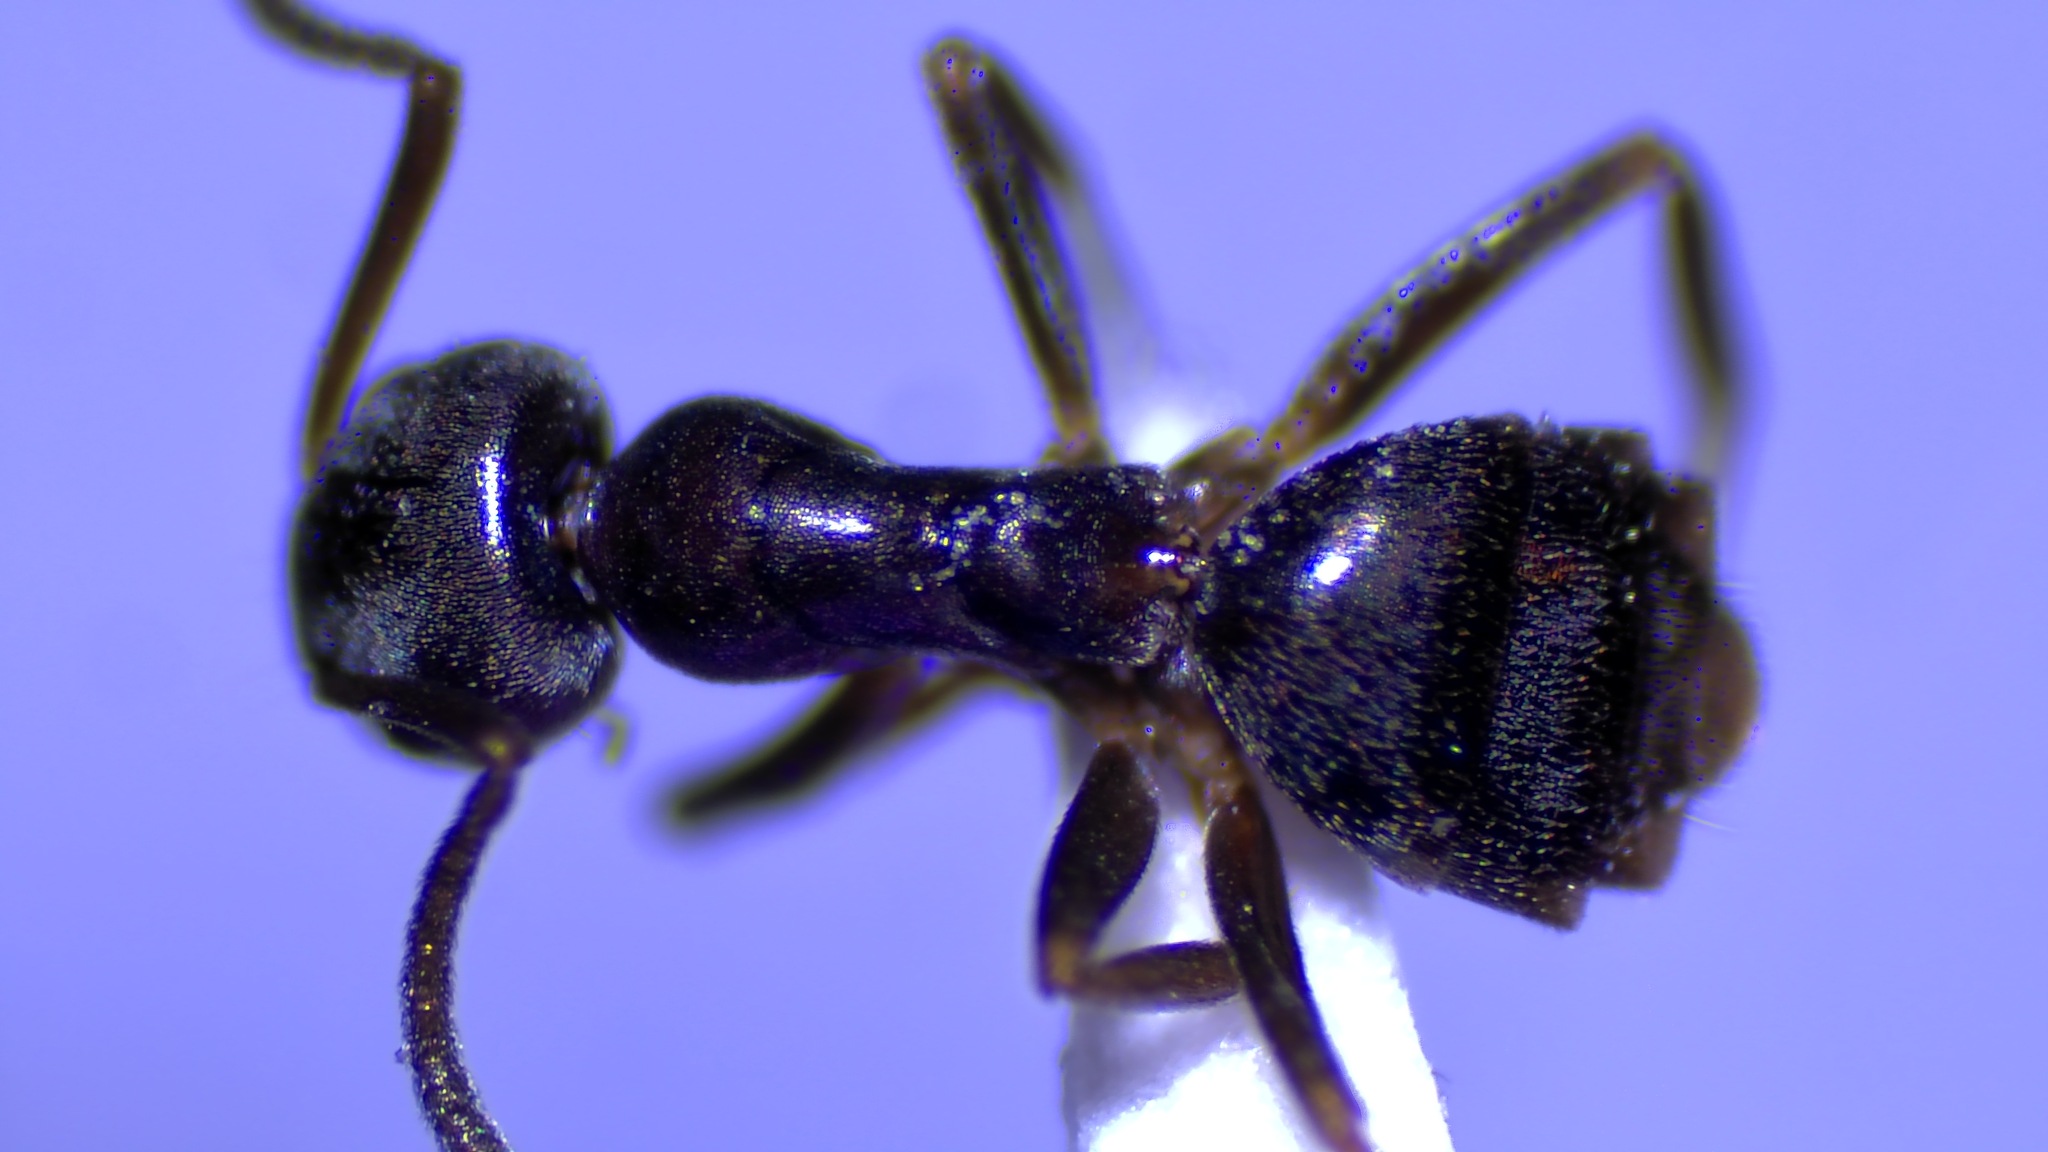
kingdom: Animalia
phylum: Arthropoda
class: Insecta
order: Hymenoptera
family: Formicidae
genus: Tapinoma
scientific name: Tapinoma sessile
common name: Odorous house ant
